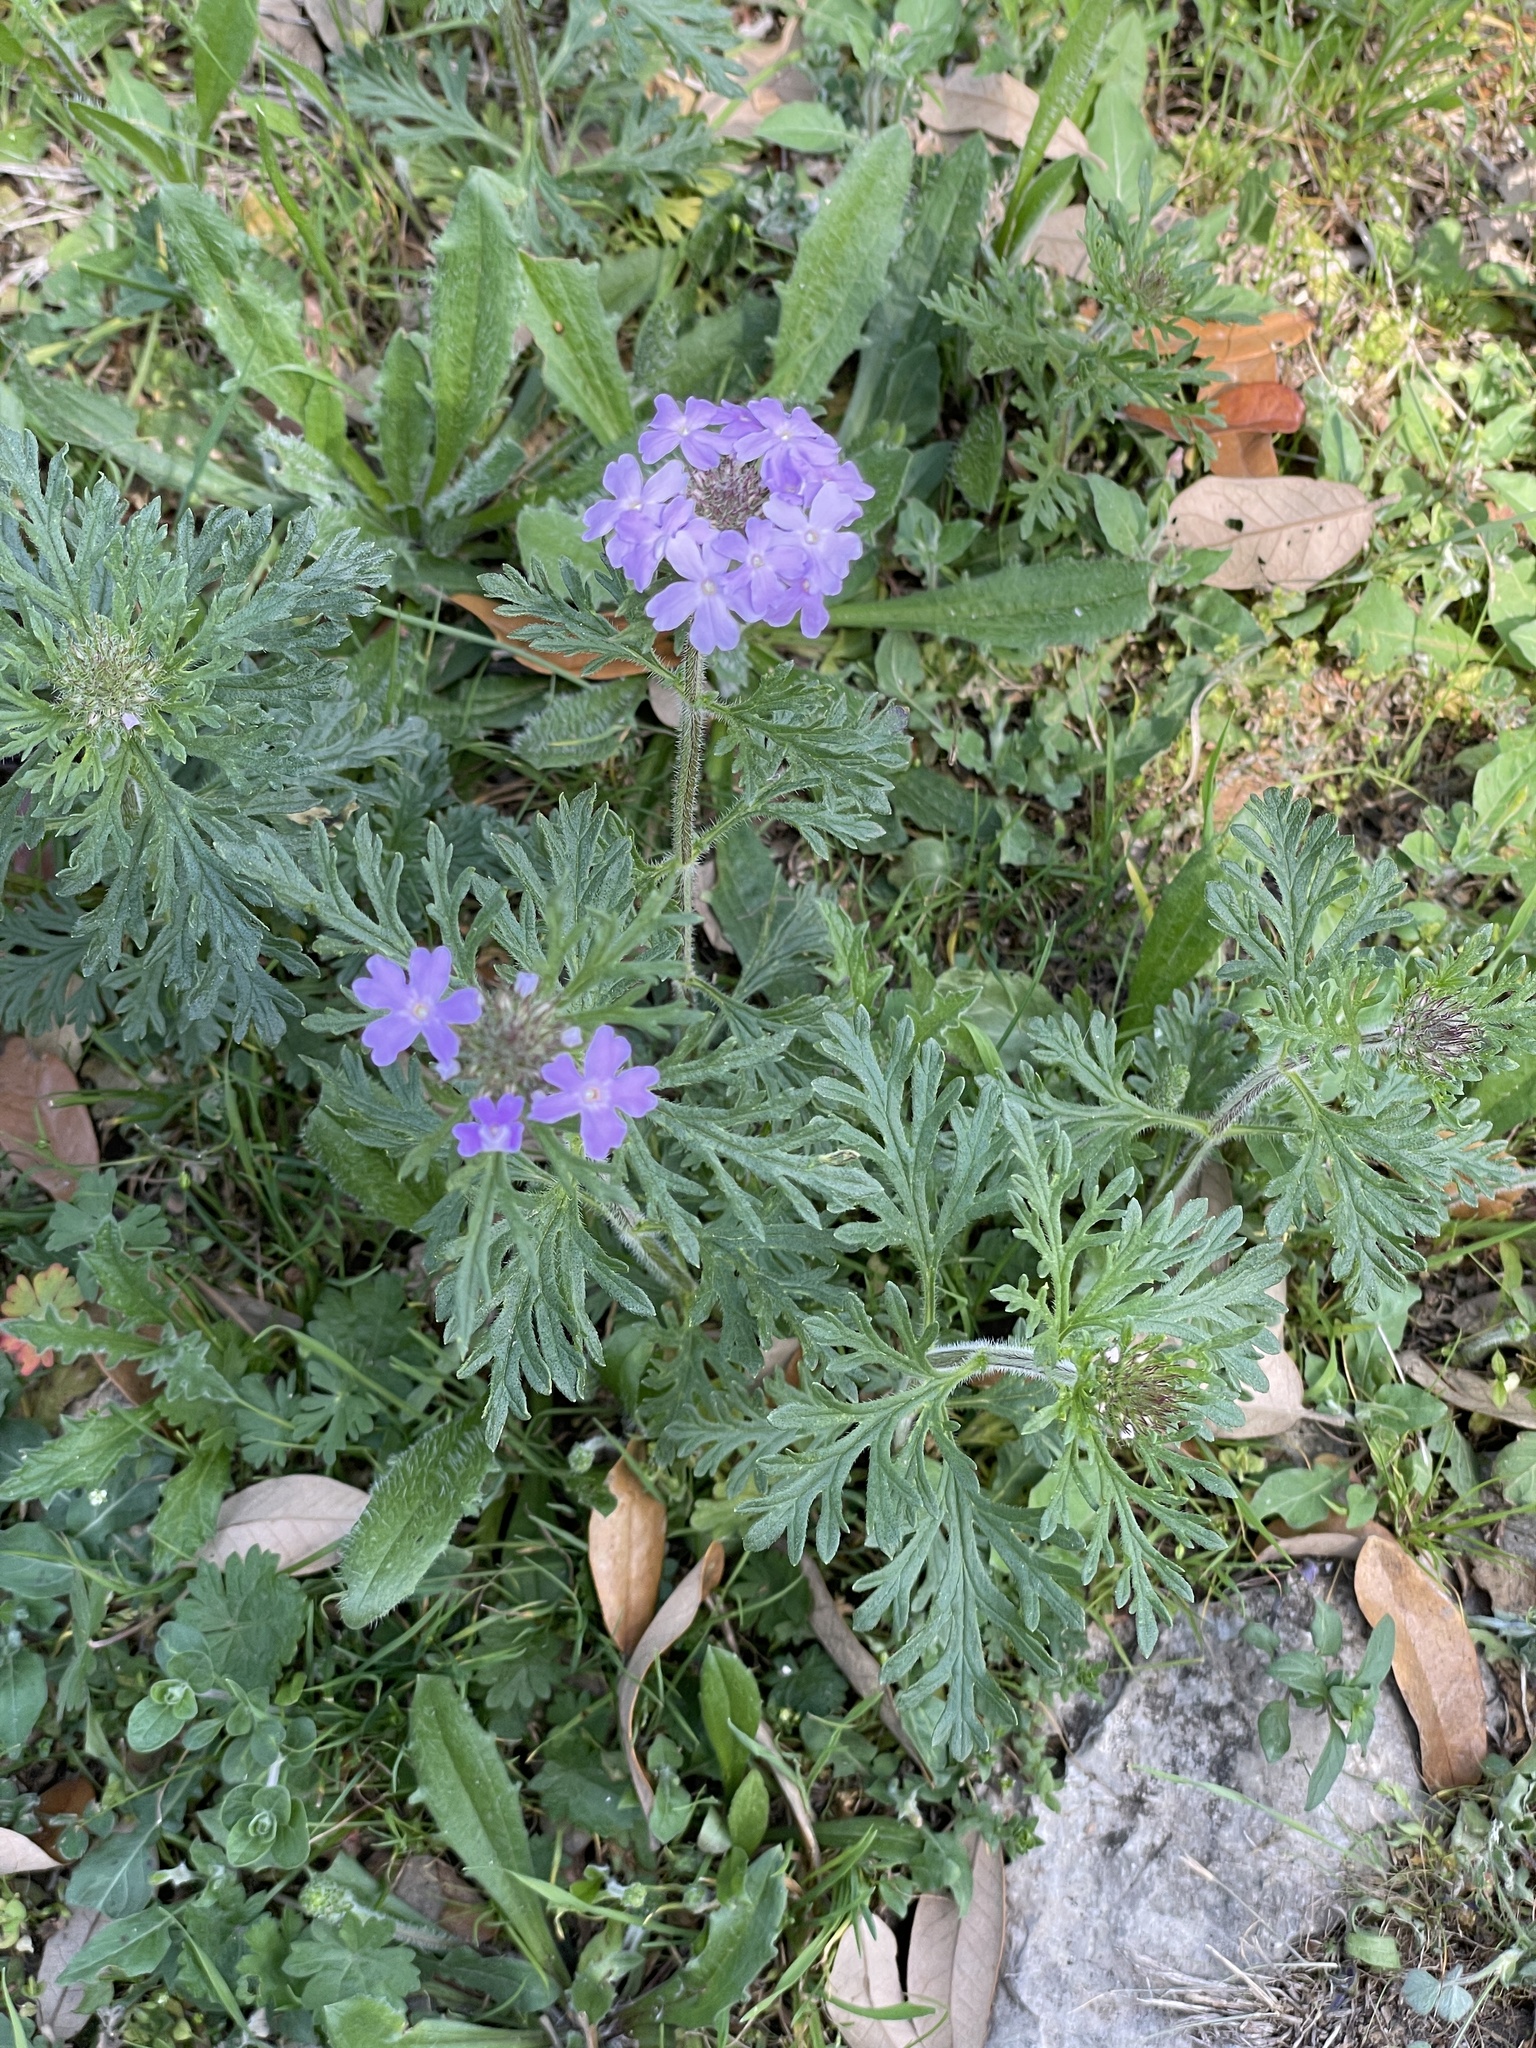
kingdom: Plantae
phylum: Tracheophyta
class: Magnoliopsida
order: Lamiales
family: Verbenaceae
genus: Verbena
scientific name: Verbena bipinnatifida
